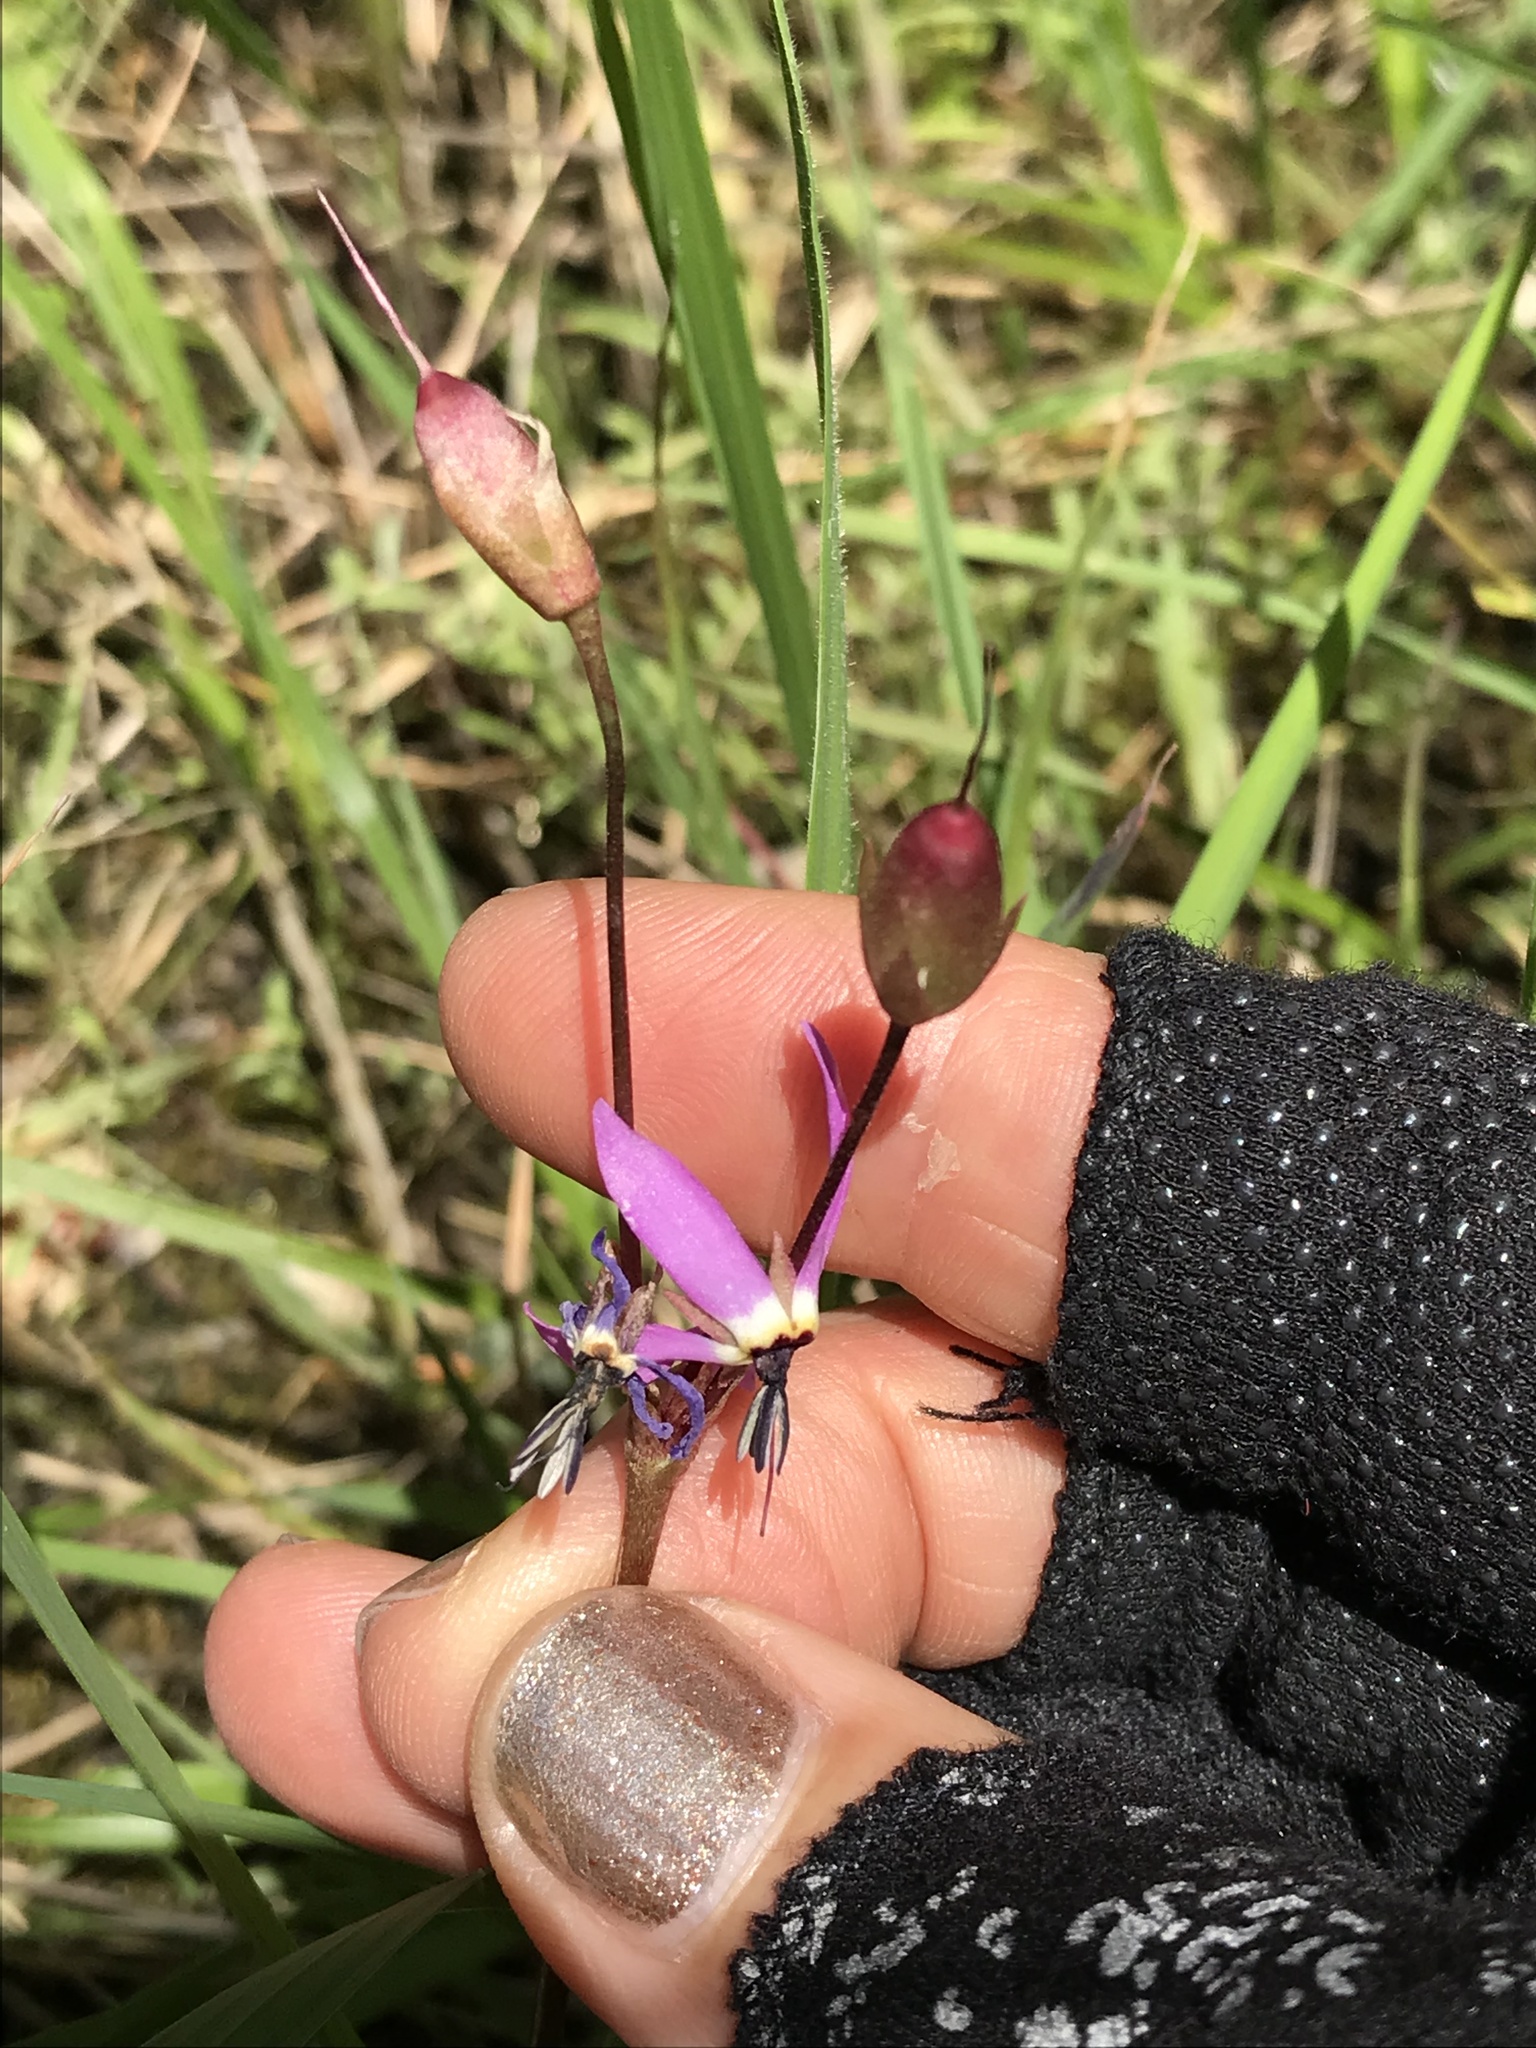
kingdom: Plantae
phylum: Tracheophyta
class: Magnoliopsida
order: Ericales
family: Primulaceae
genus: Dodecatheon
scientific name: Dodecatheon hendersonii
